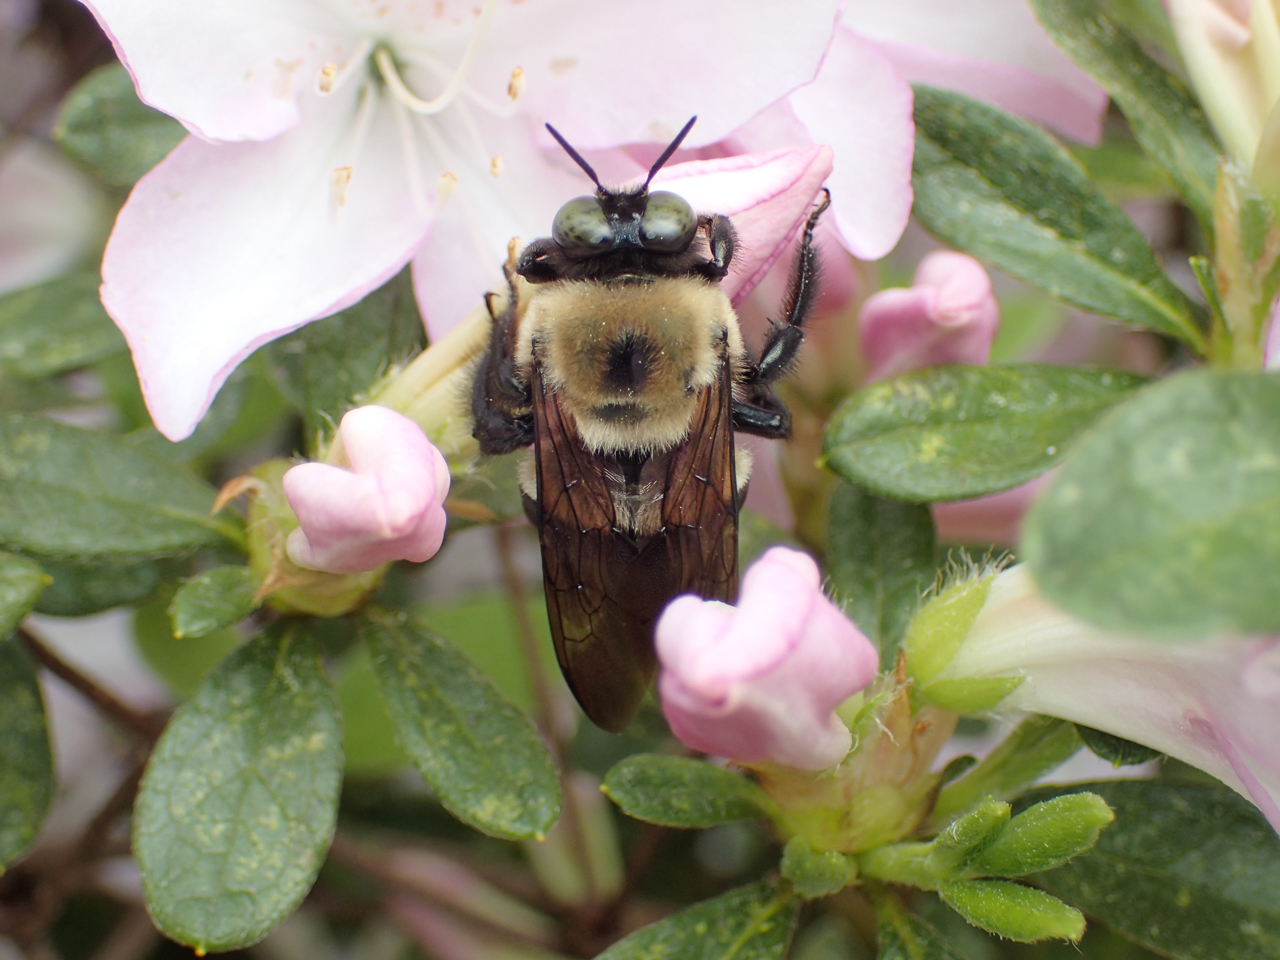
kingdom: Animalia
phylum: Arthropoda
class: Insecta
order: Hymenoptera
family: Apidae
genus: Xylocopa
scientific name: Xylocopa virginica
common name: Carpenter bee
